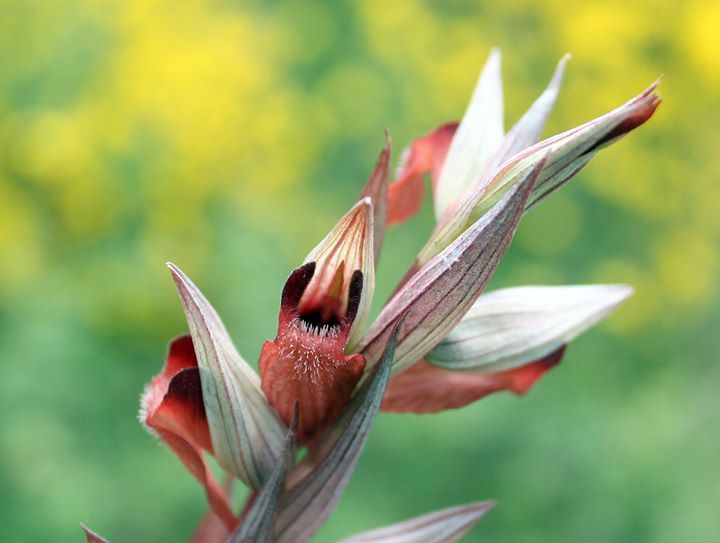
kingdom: Plantae
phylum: Tracheophyta
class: Liliopsida
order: Asparagales
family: Orchidaceae
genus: Serapias
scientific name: Serapias vomeracea
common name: Long-lipped tongue-orchid
